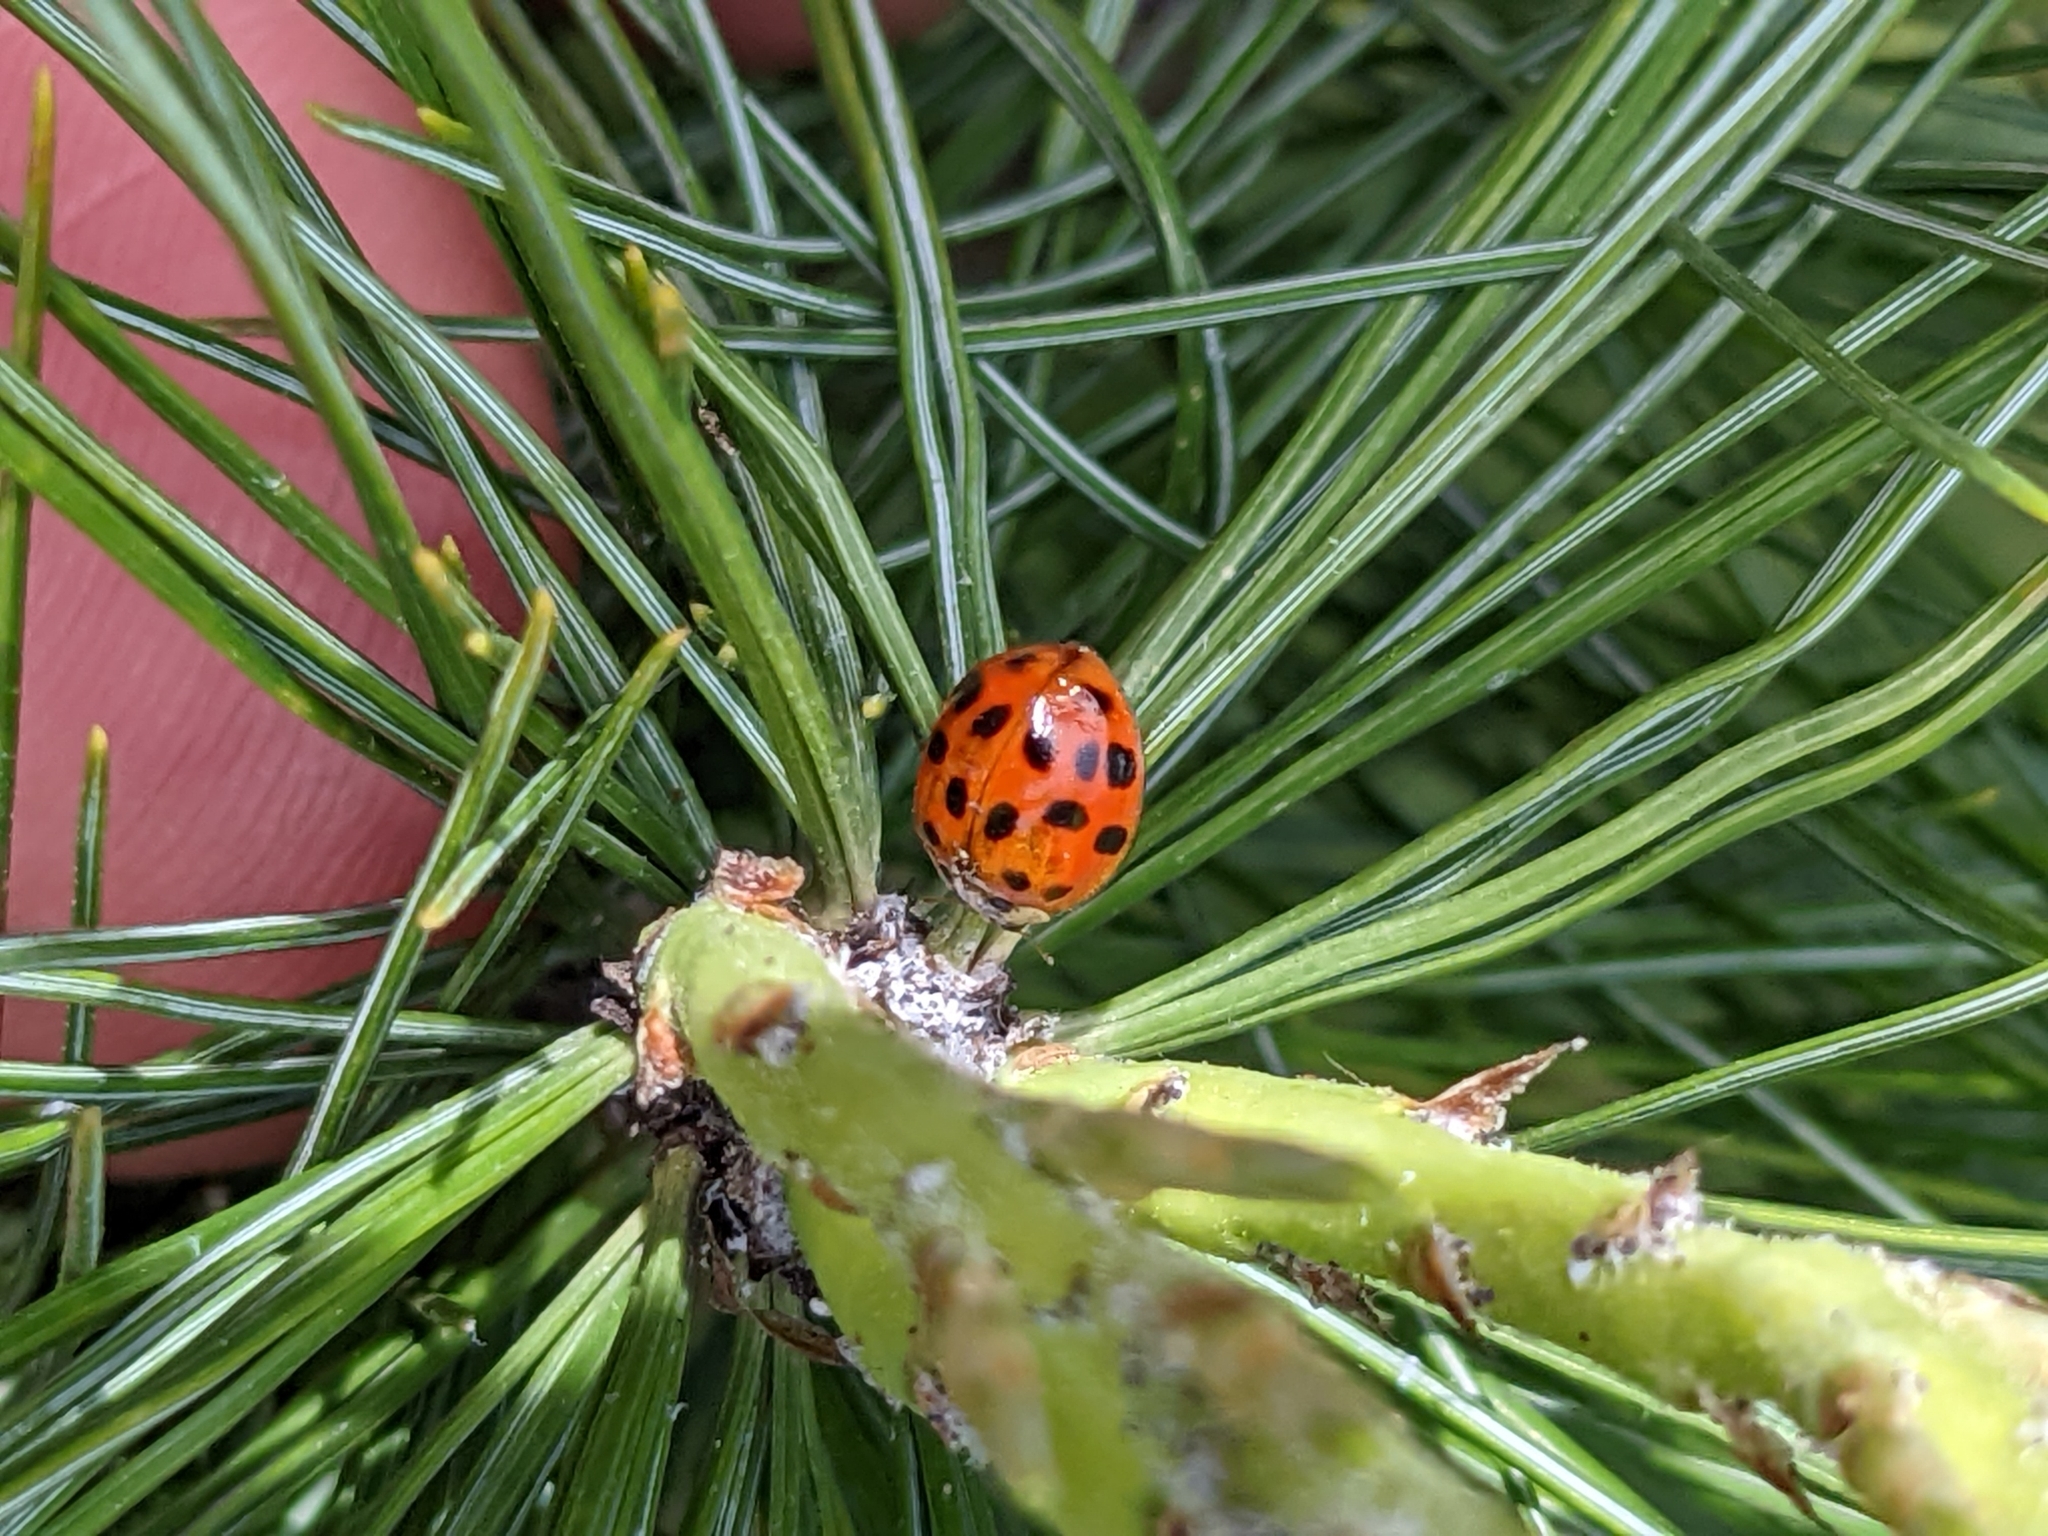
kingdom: Animalia
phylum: Arthropoda
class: Insecta
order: Coleoptera
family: Coccinellidae
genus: Harmonia
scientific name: Harmonia axyridis
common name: Harlequin ladybird
